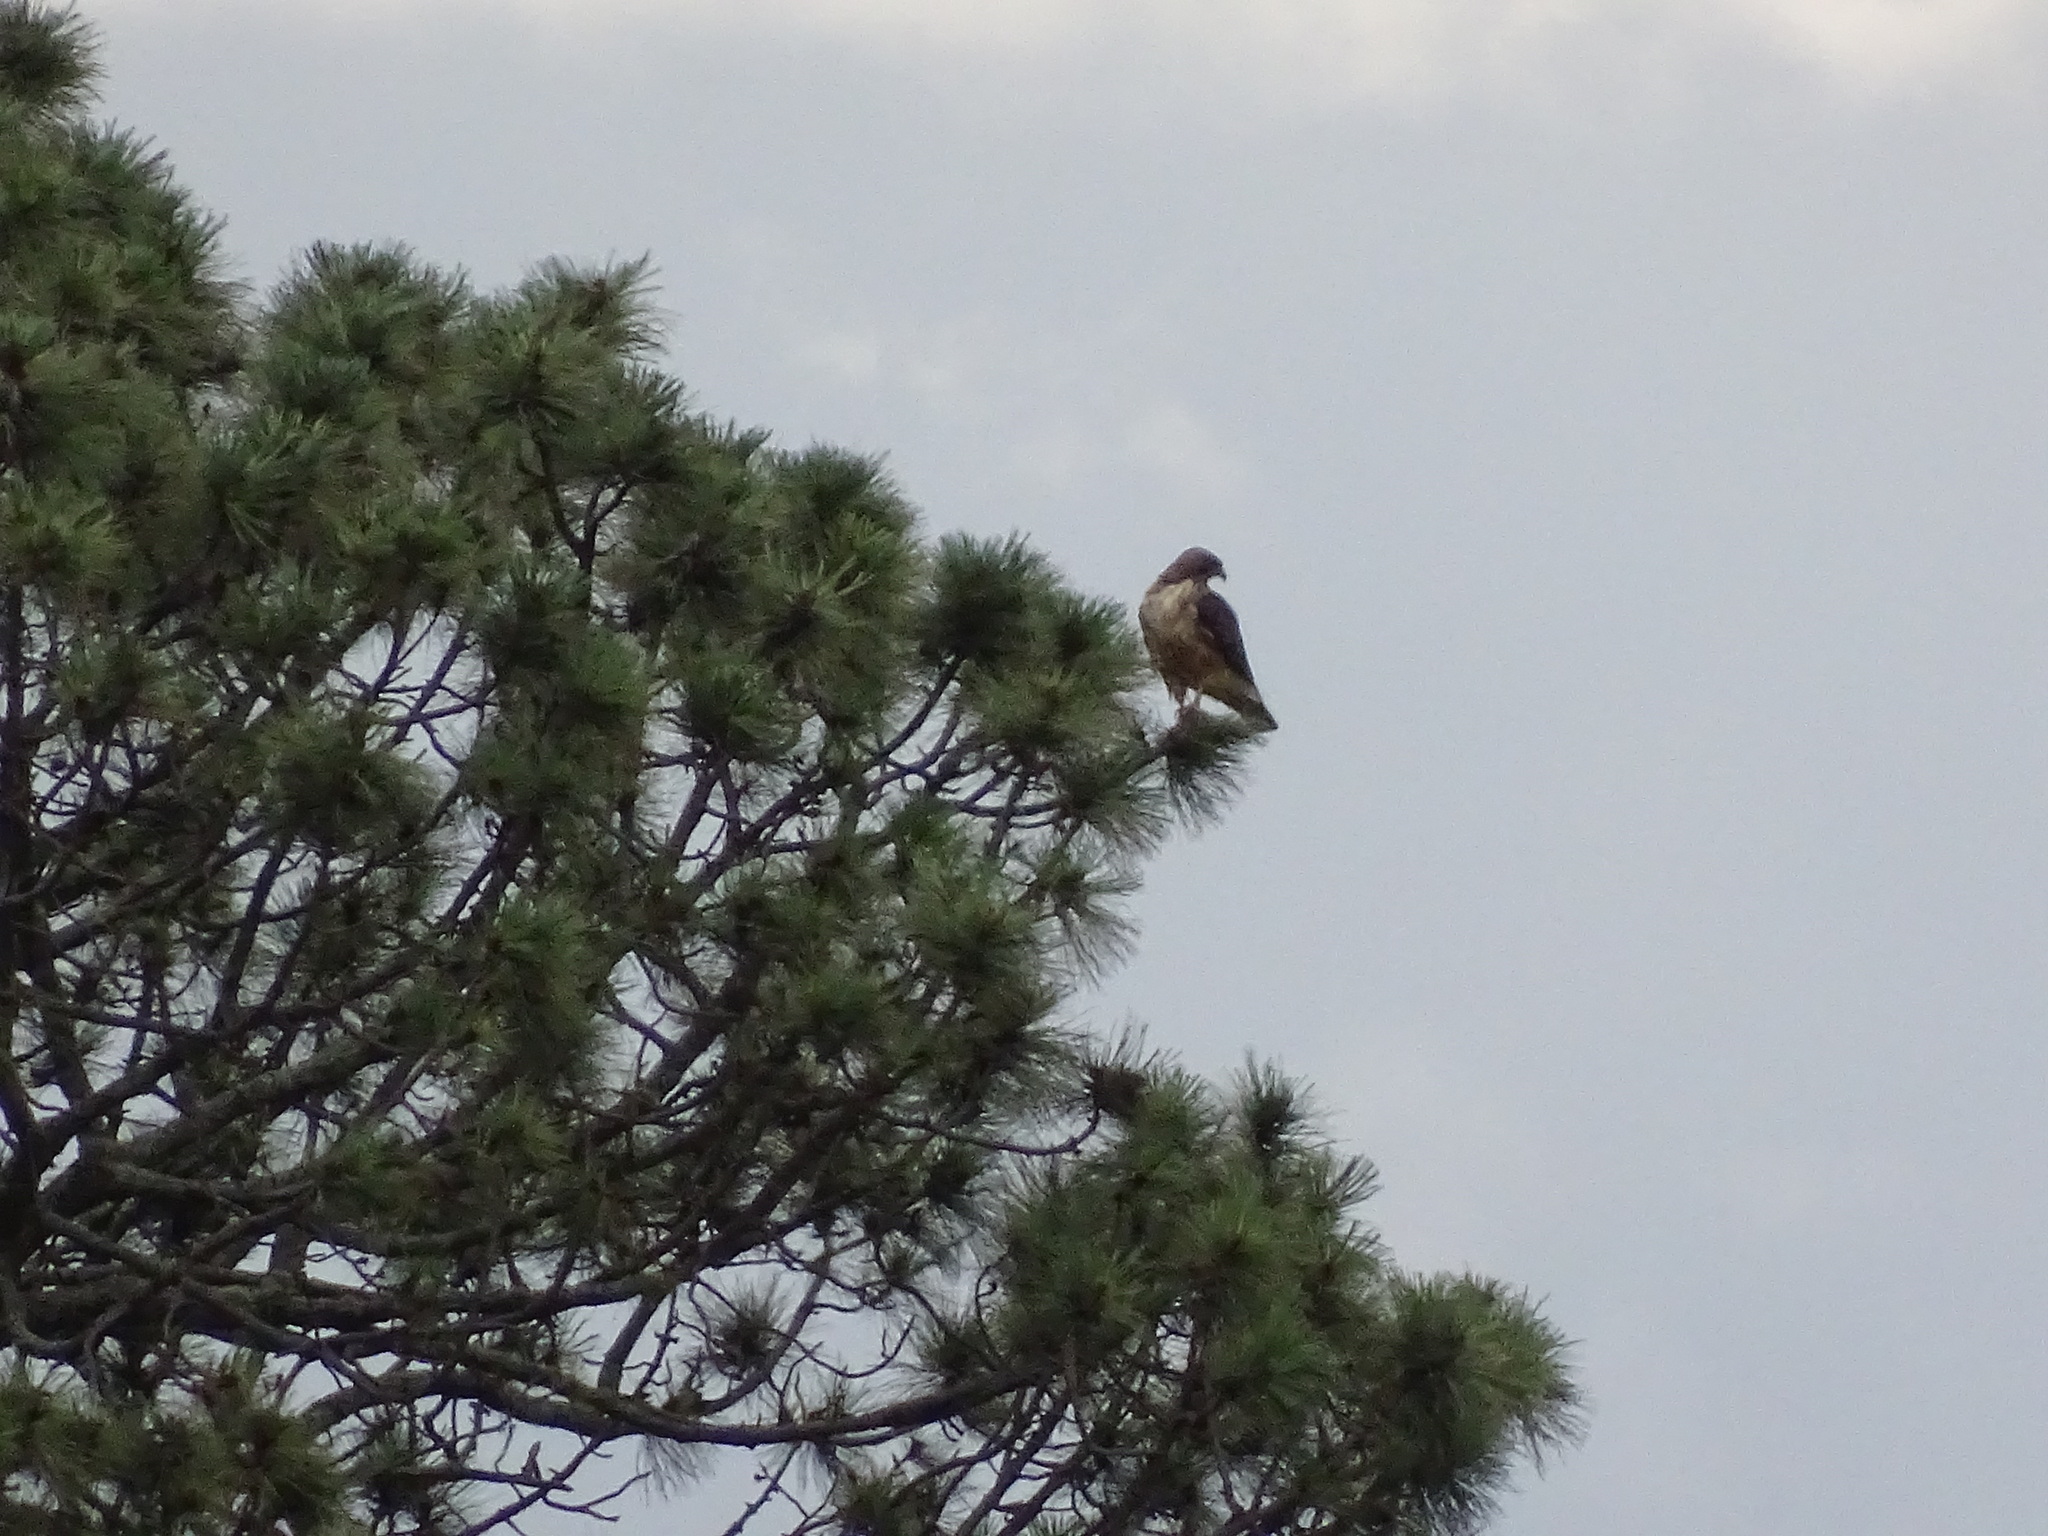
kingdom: Animalia
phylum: Chordata
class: Aves
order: Accipitriformes
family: Accipitridae
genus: Buteo
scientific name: Buteo jamaicensis
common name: Red-tailed hawk
